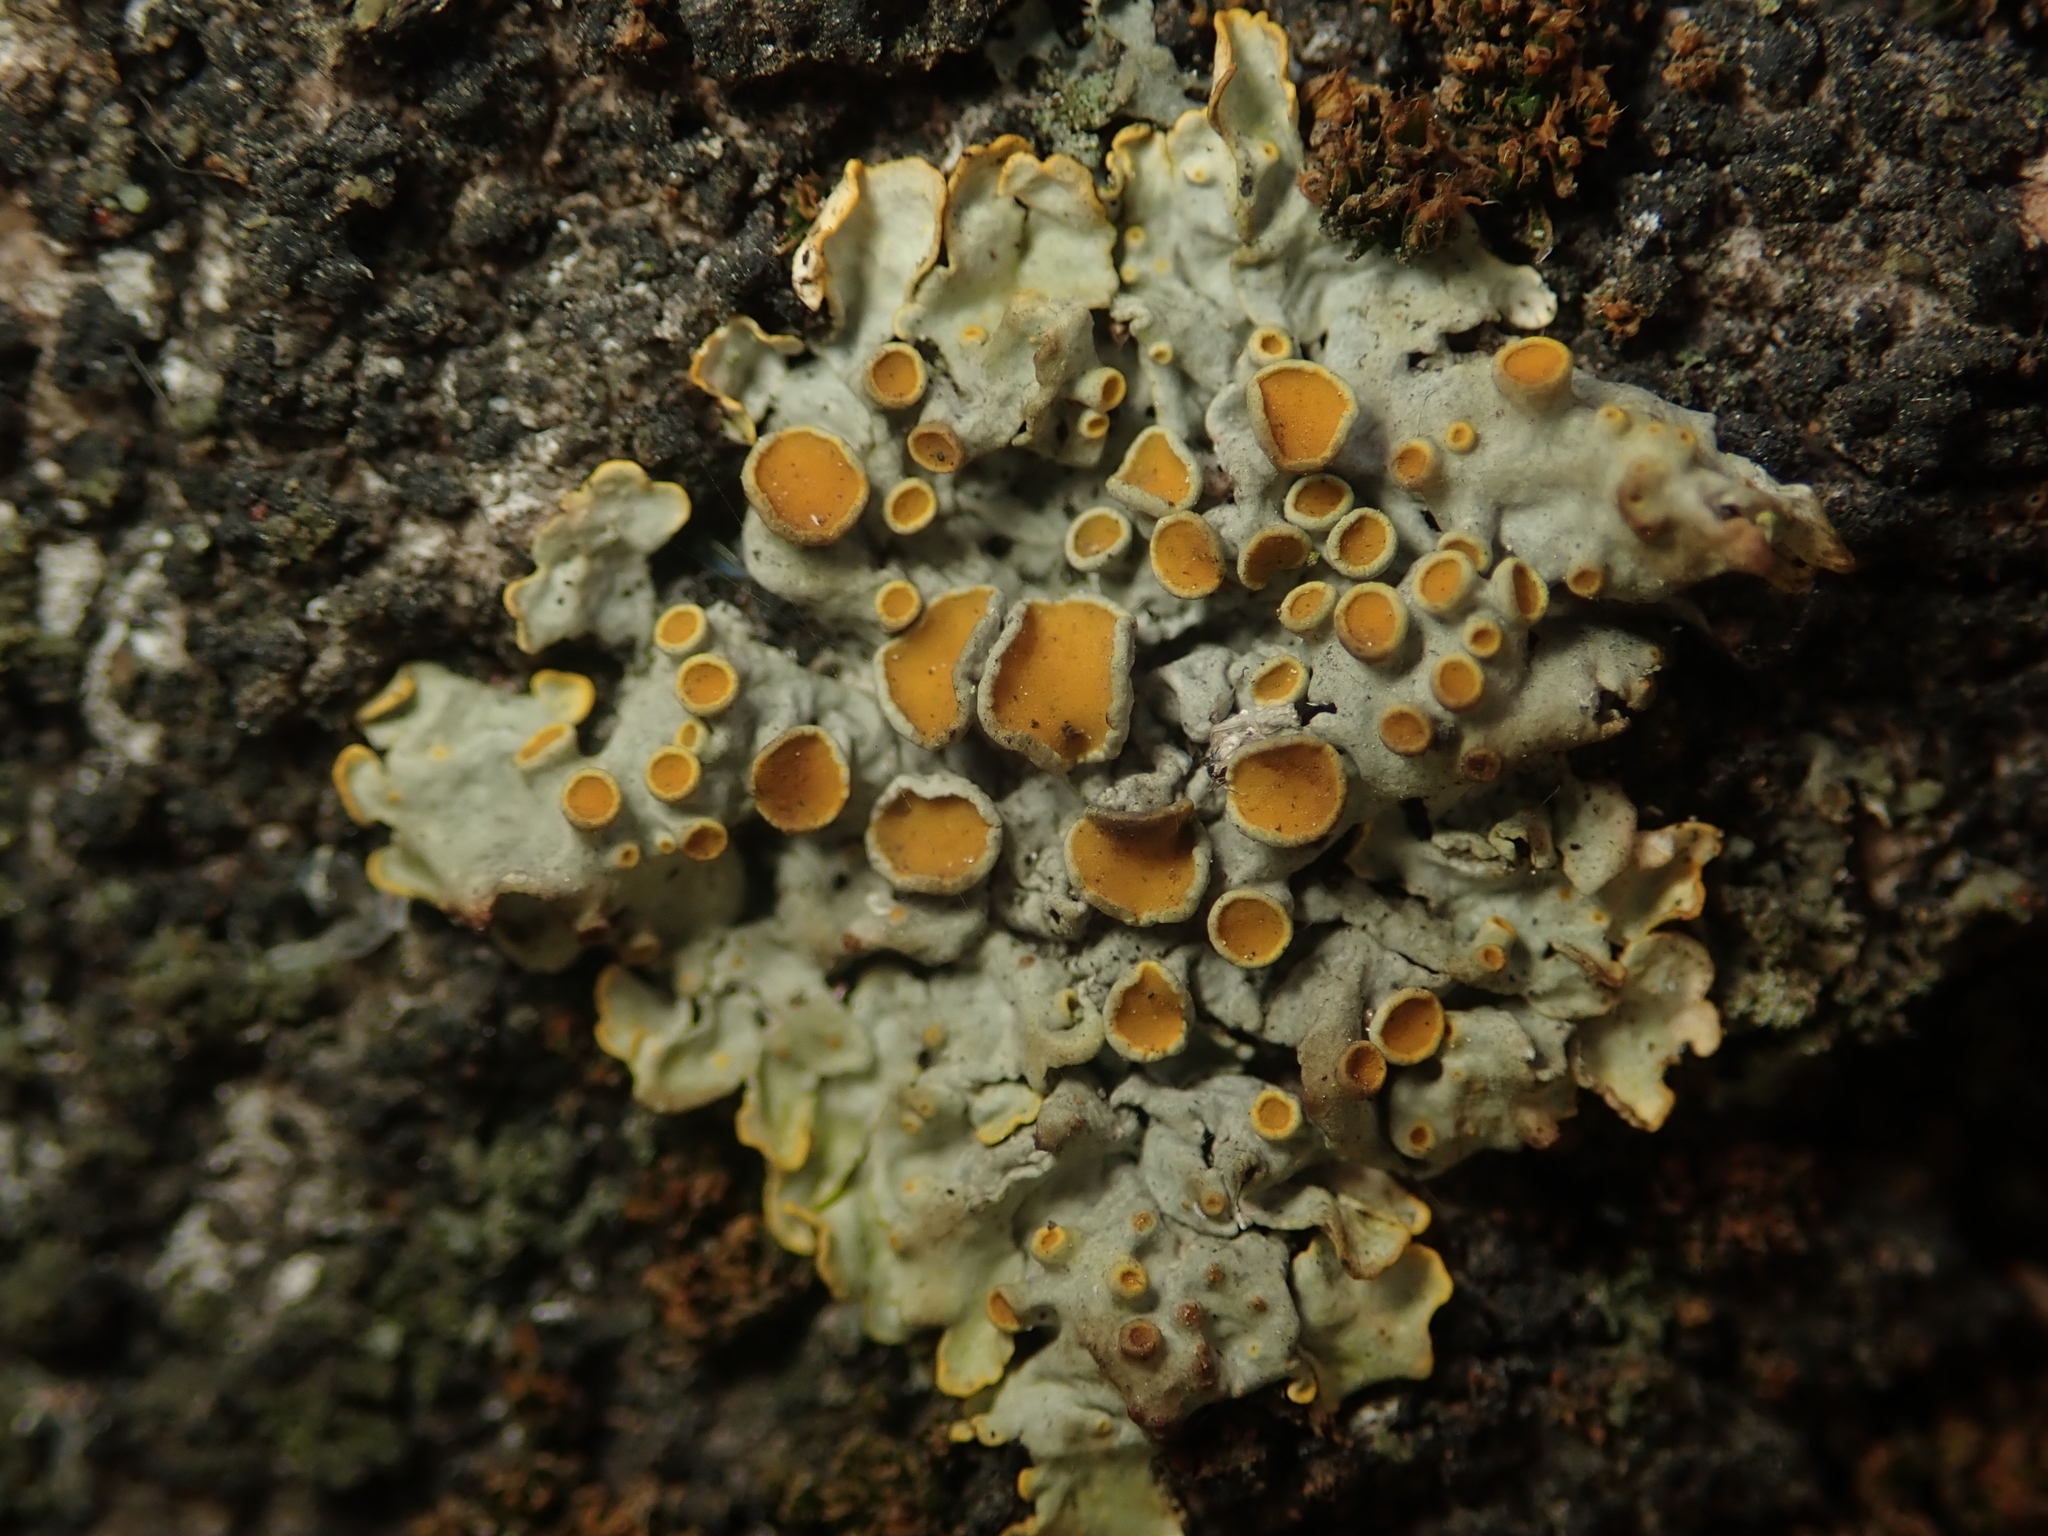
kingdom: Fungi
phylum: Ascomycota
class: Lecanoromycetes
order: Teloschistales
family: Teloschistaceae
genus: Xanthoria
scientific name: Xanthoria parietina
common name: Common orange lichen
